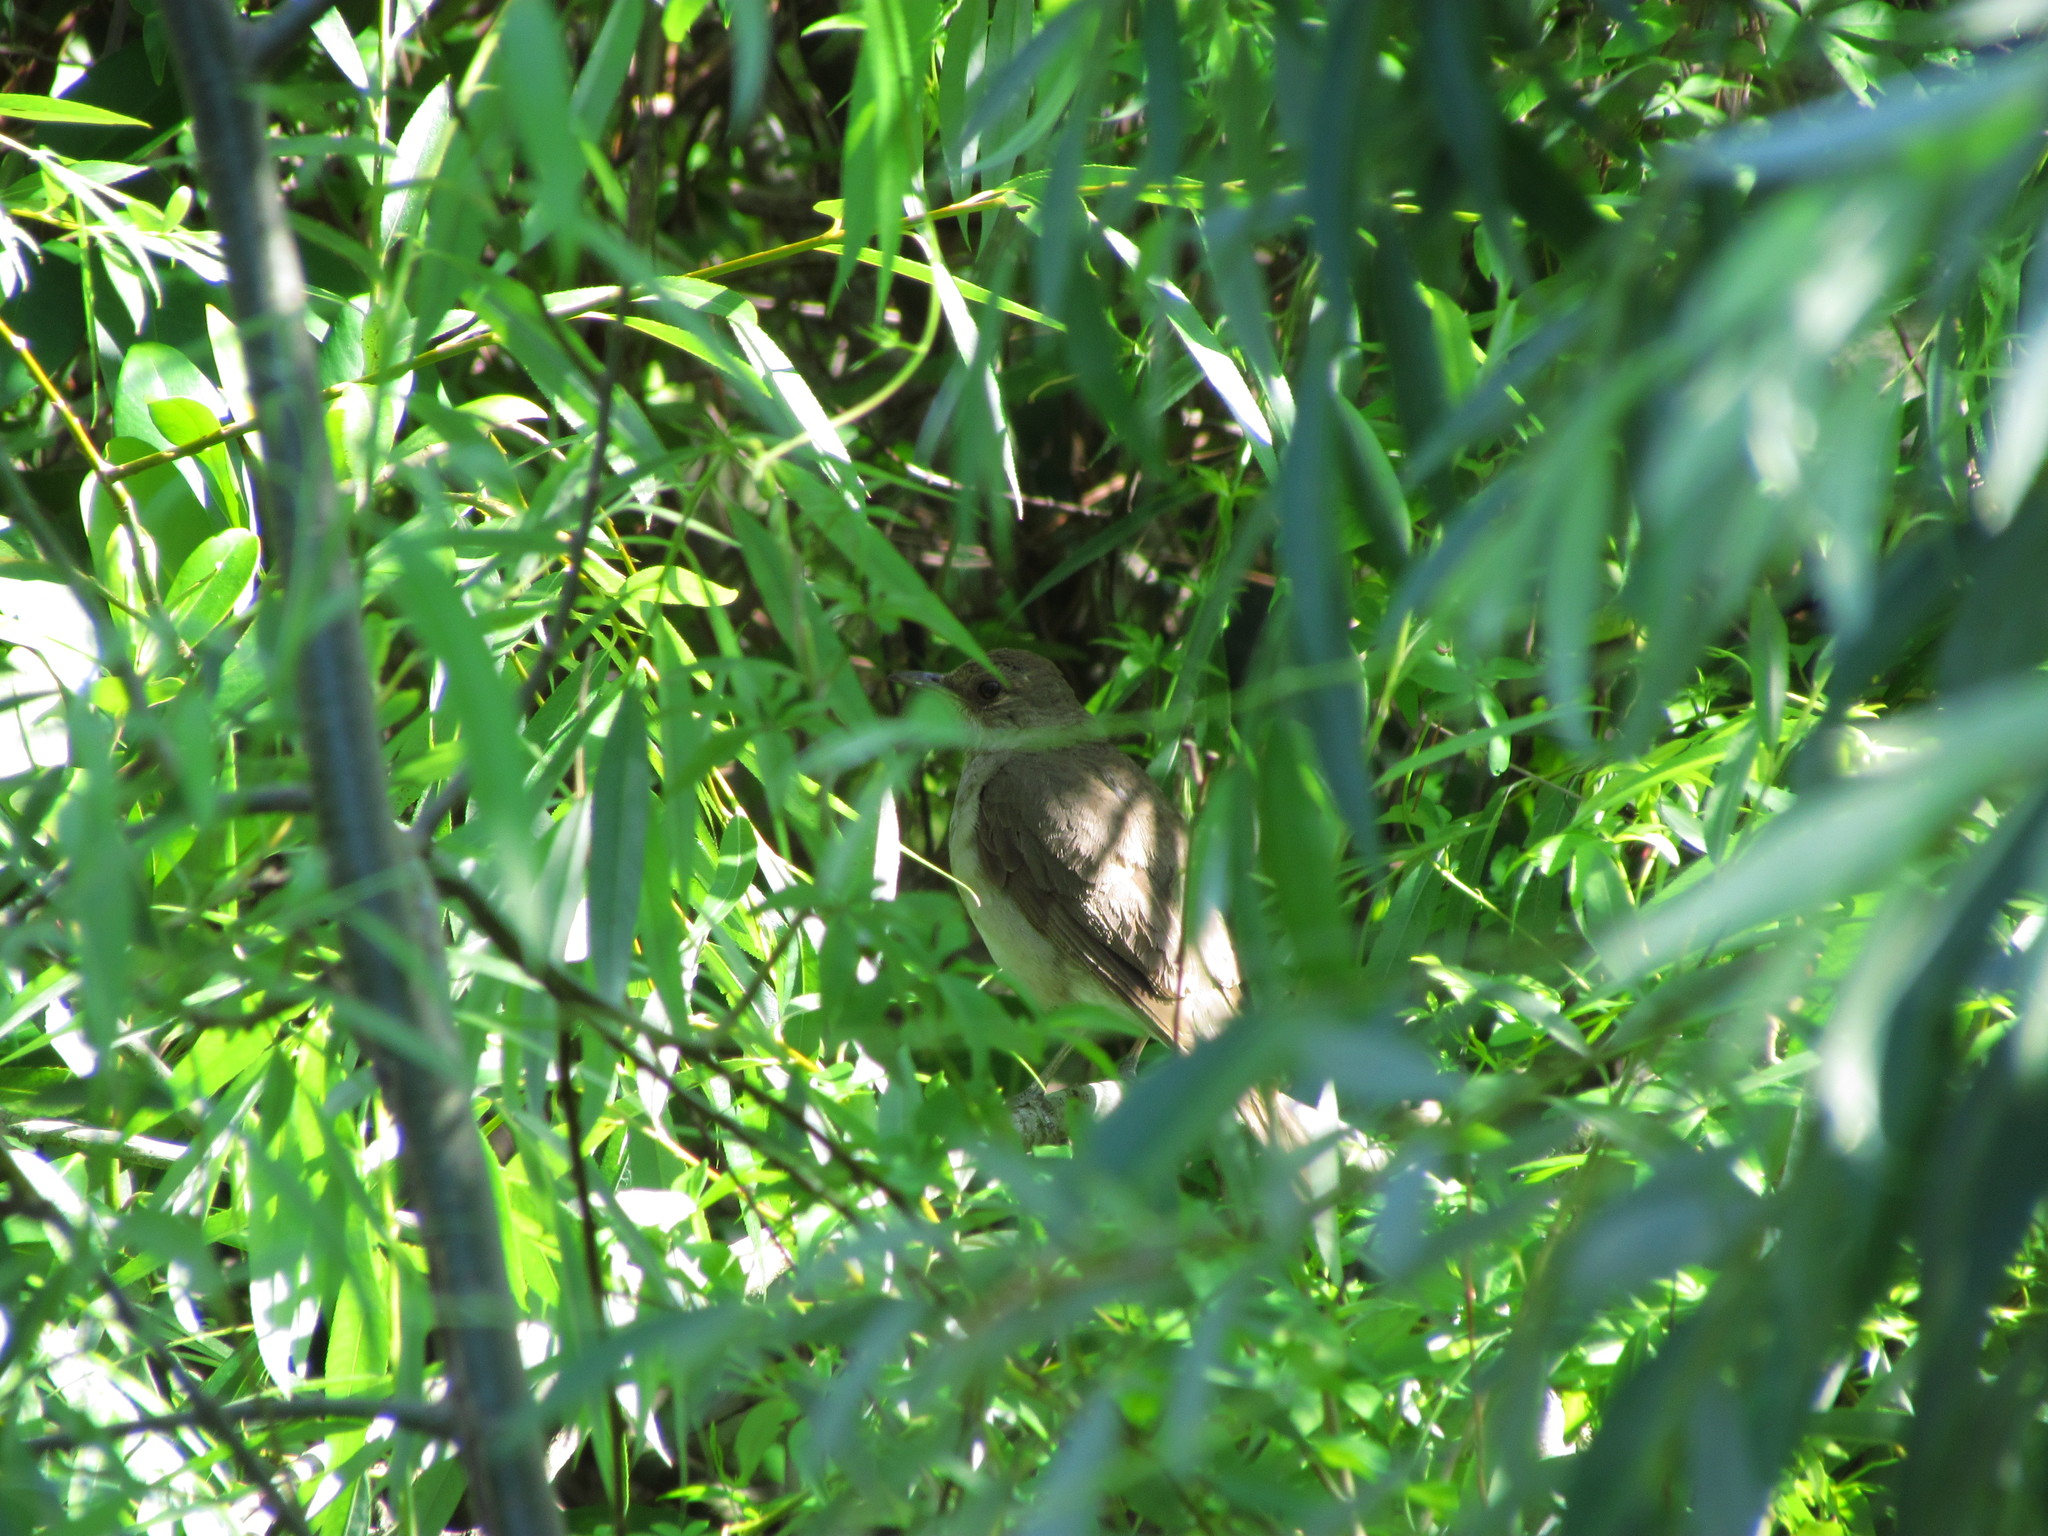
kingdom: Animalia
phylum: Chordata
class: Aves
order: Passeriformes
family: Turdidae
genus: Turdus
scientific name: Turdus amaurochalinus
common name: Creamy-bellied thrush
